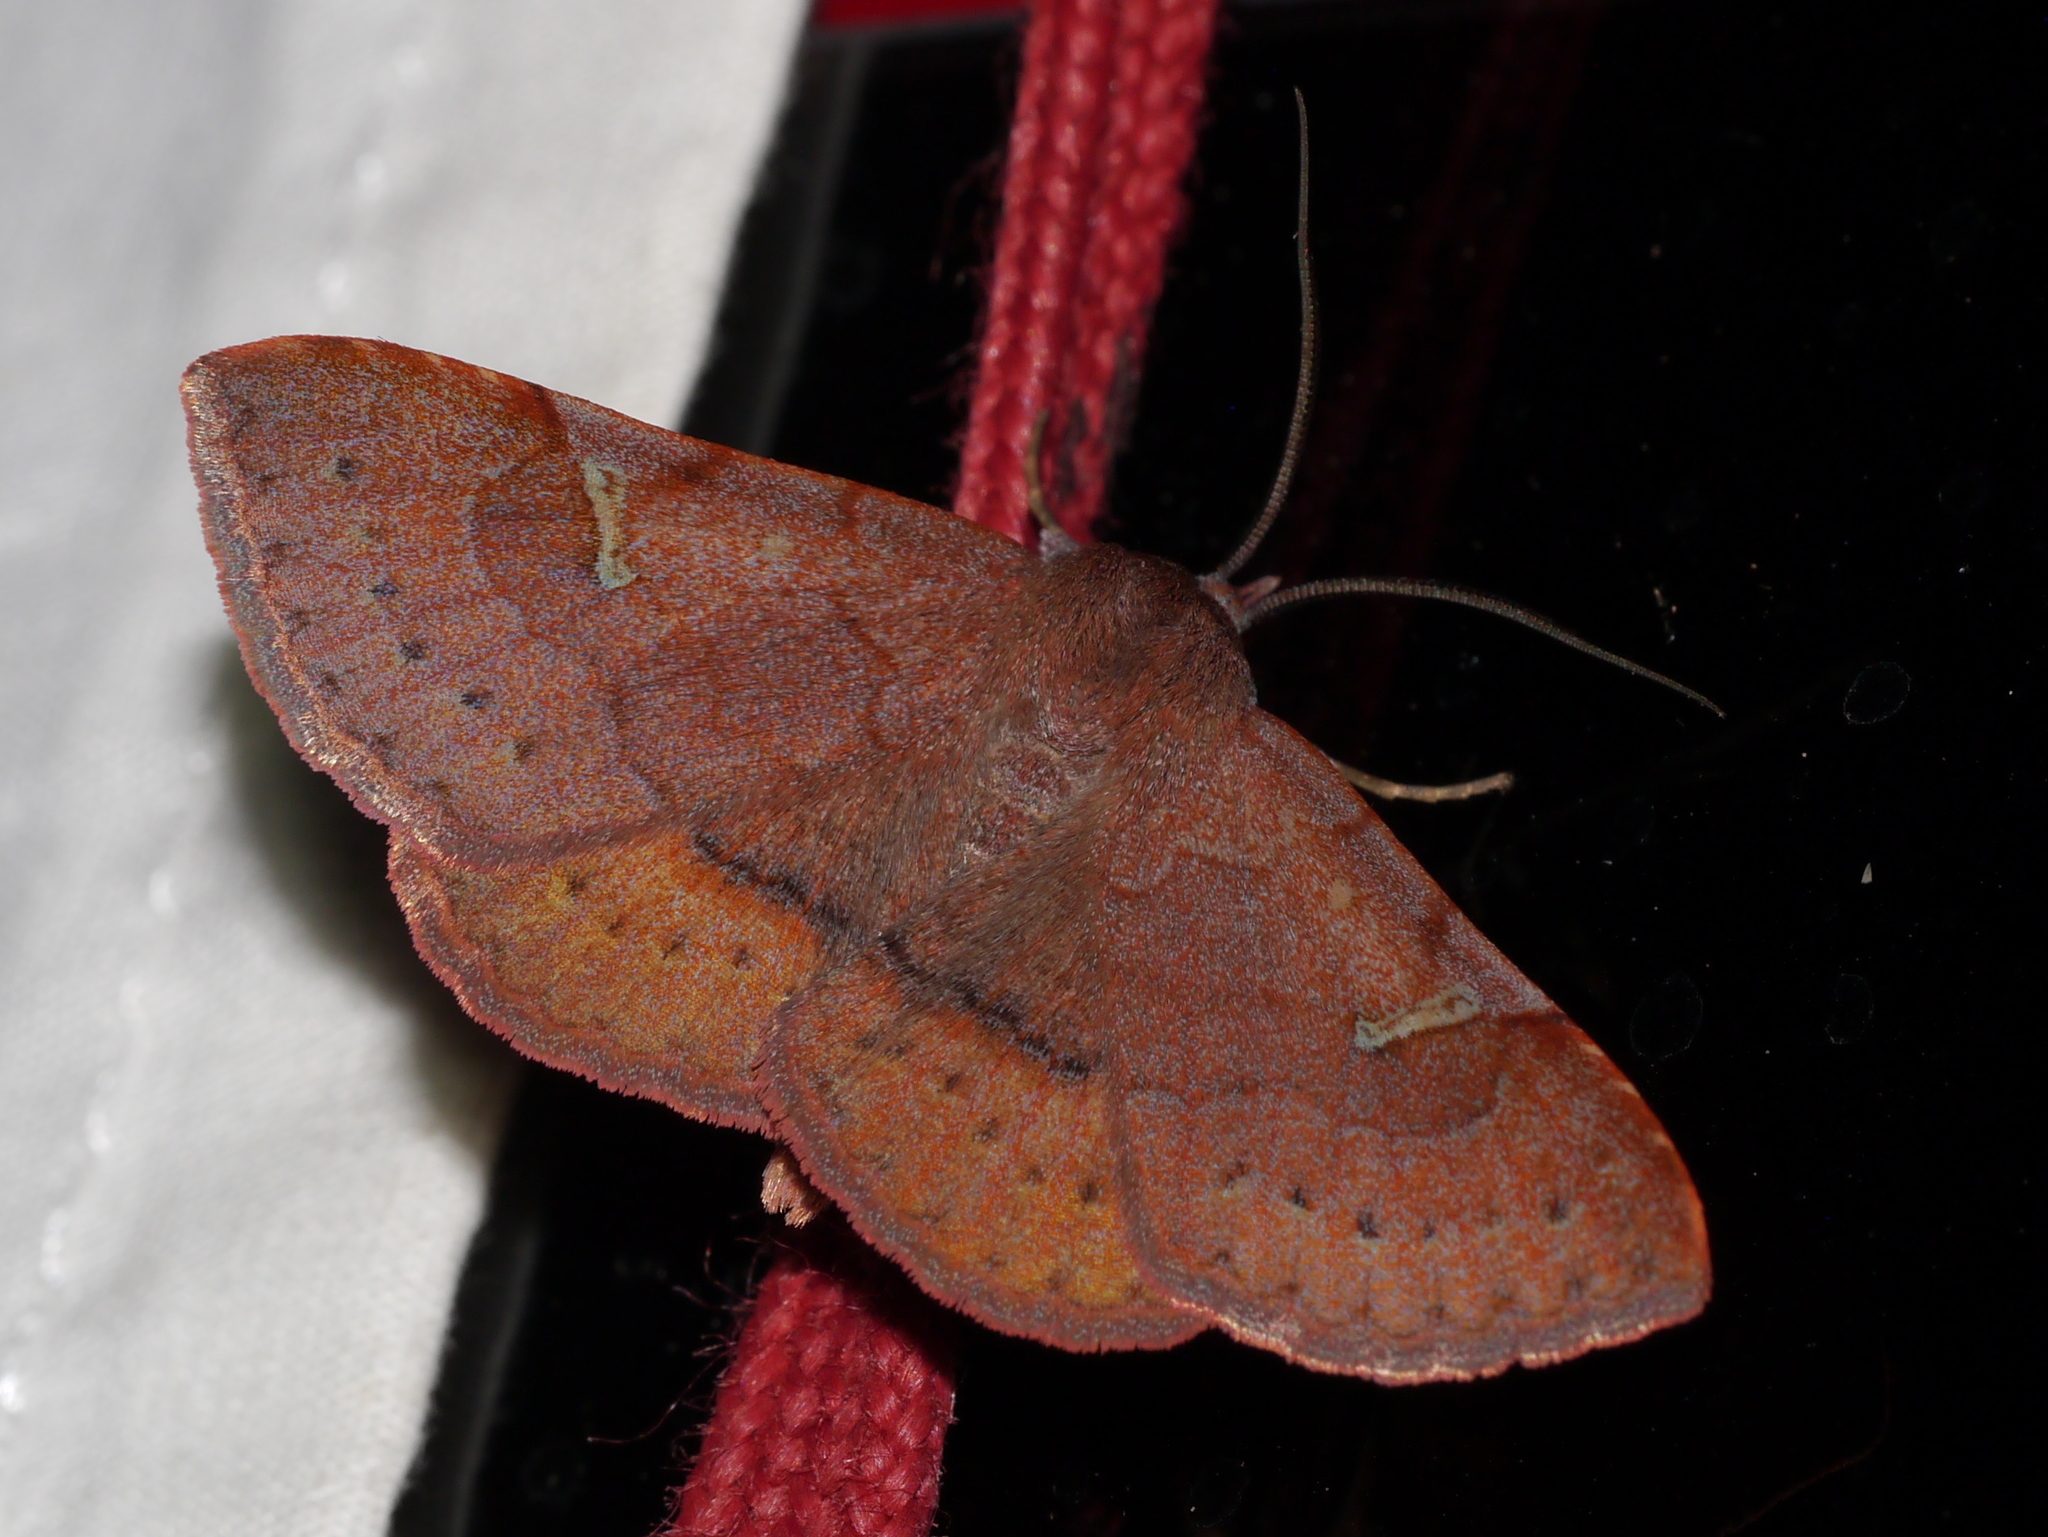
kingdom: Animalia
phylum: Arthropoda
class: Insecta
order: Lepidoptera
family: Erebidae
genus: Azeta
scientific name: Azeta schausi
